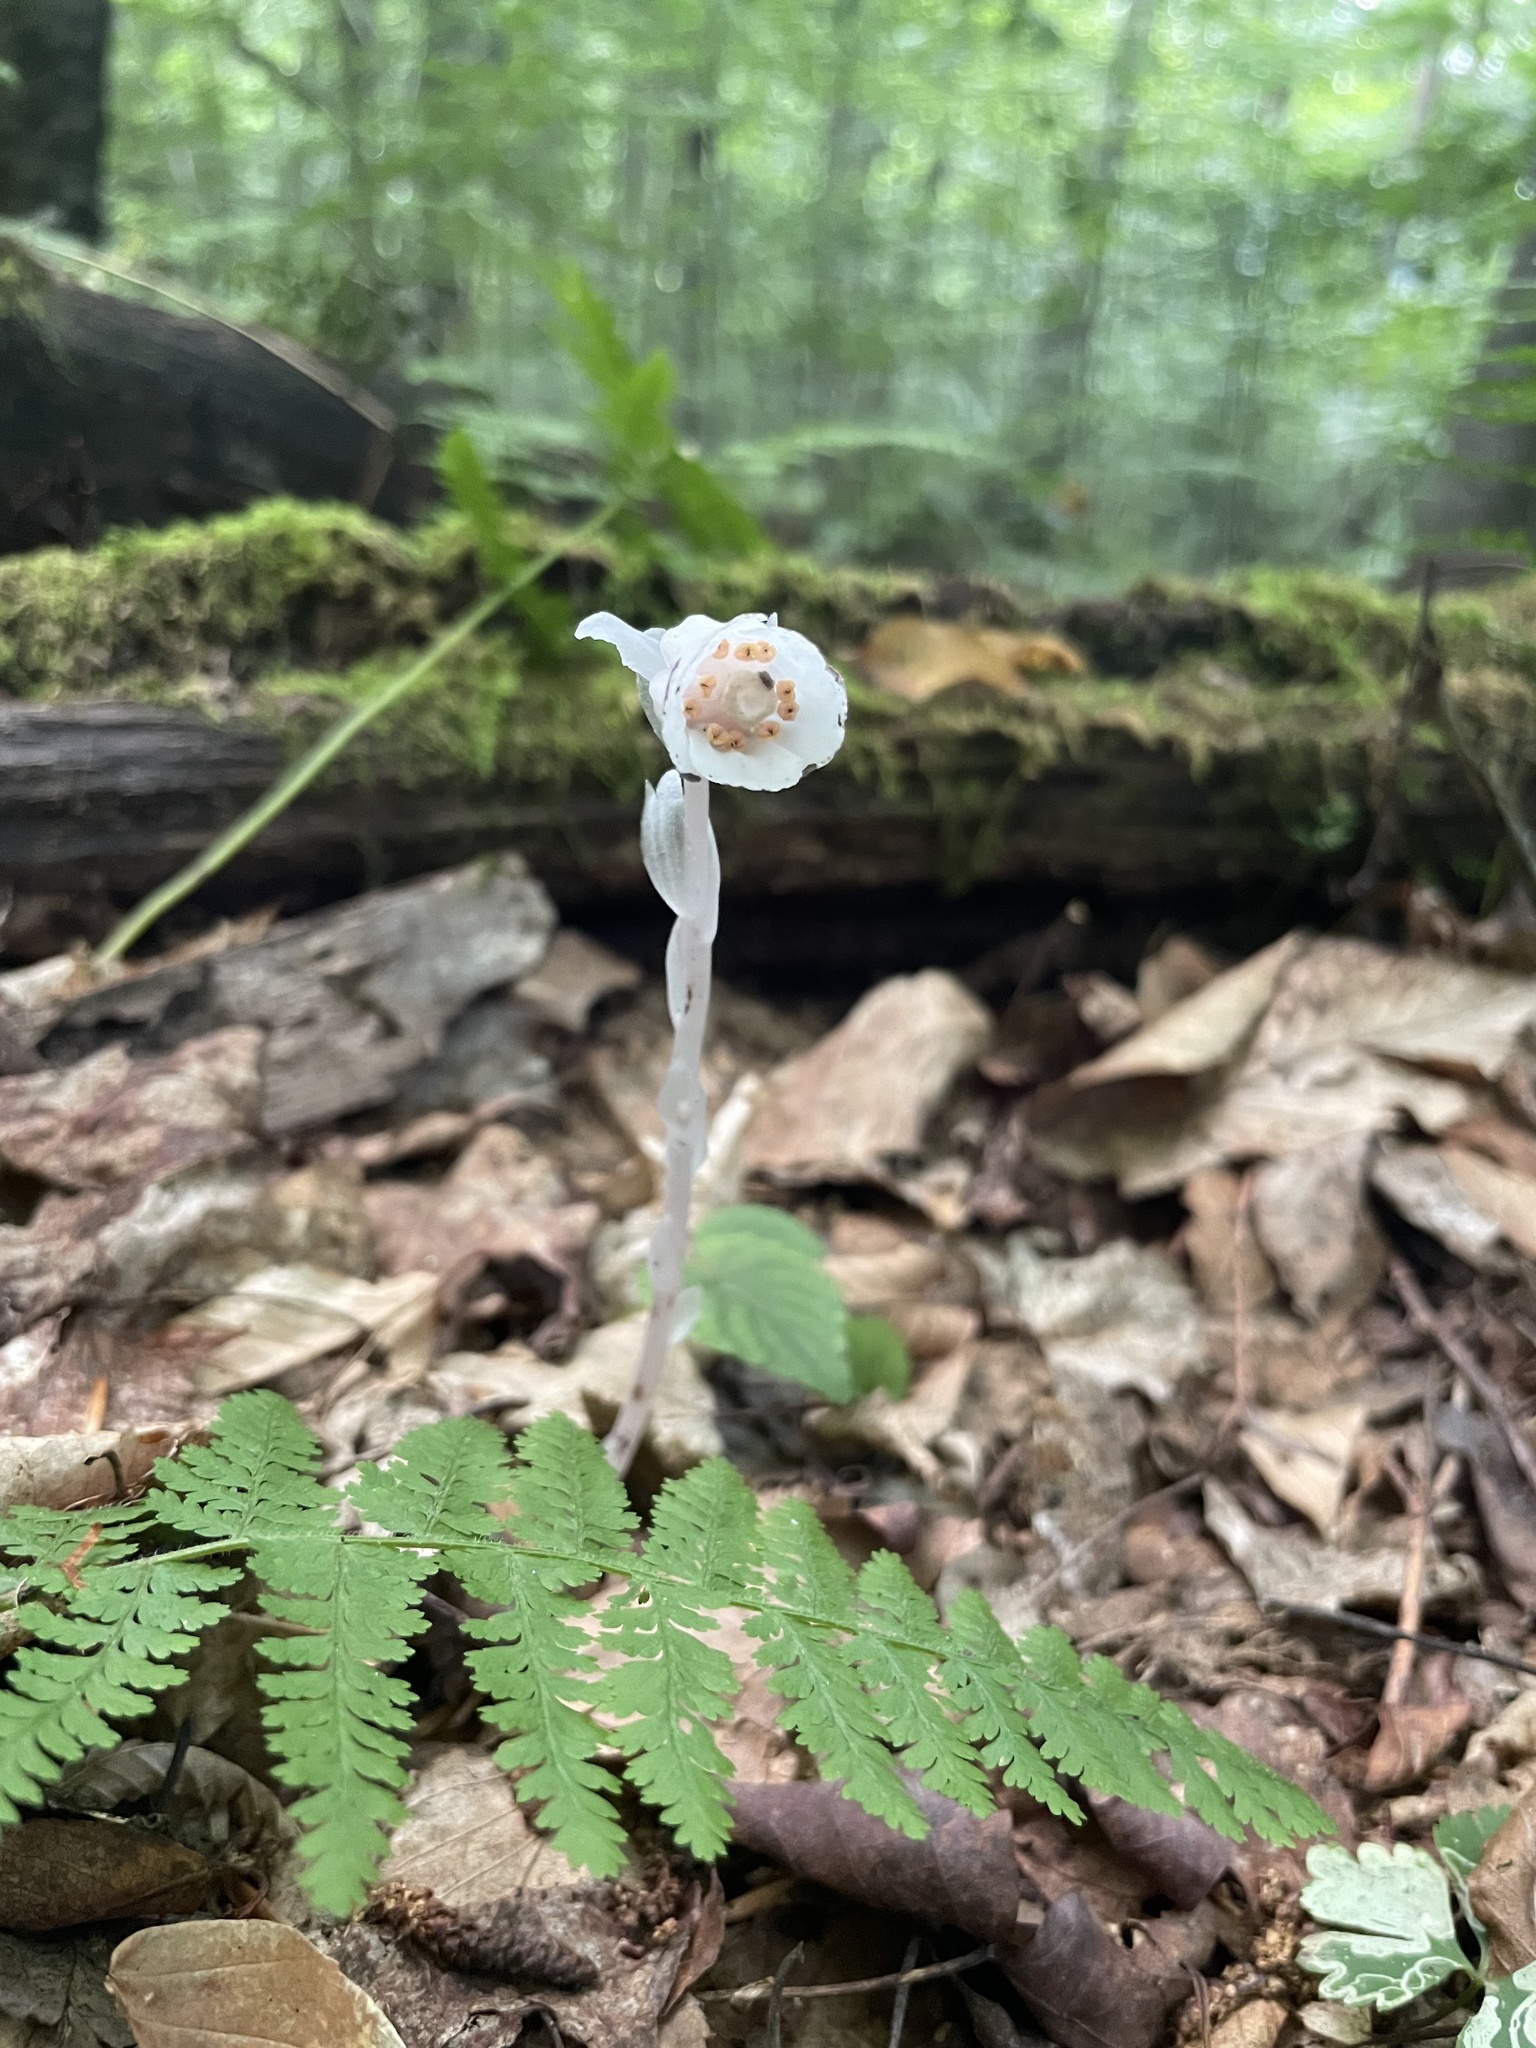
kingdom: Plantae
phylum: Tracheophyta
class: Magnoliopsida
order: Ericales
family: Ericaceae
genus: Monotropa
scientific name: Monotropa uniflora
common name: Convulsion root
